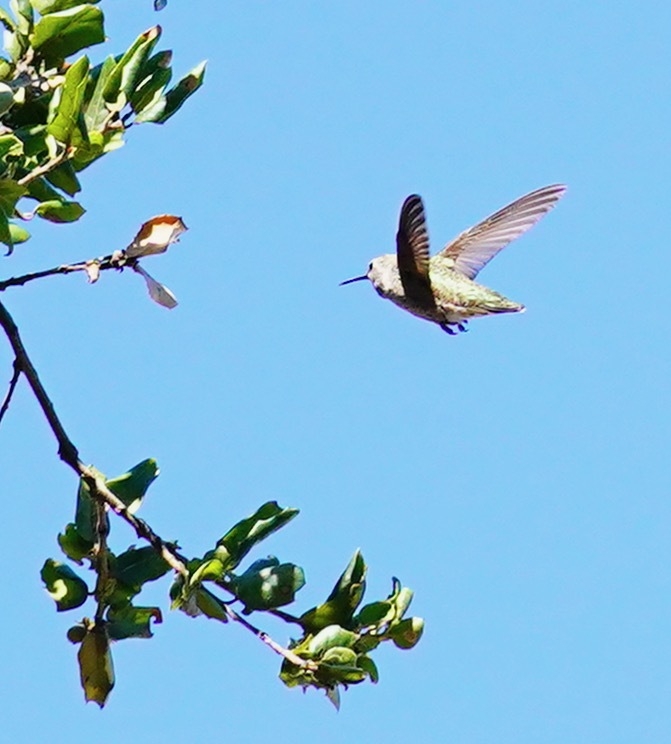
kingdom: Animalia
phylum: Chordata
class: Aves
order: Apodiformes
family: Trochilidae
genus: Calypte
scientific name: Calypte anna
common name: Anna's hummingbird
